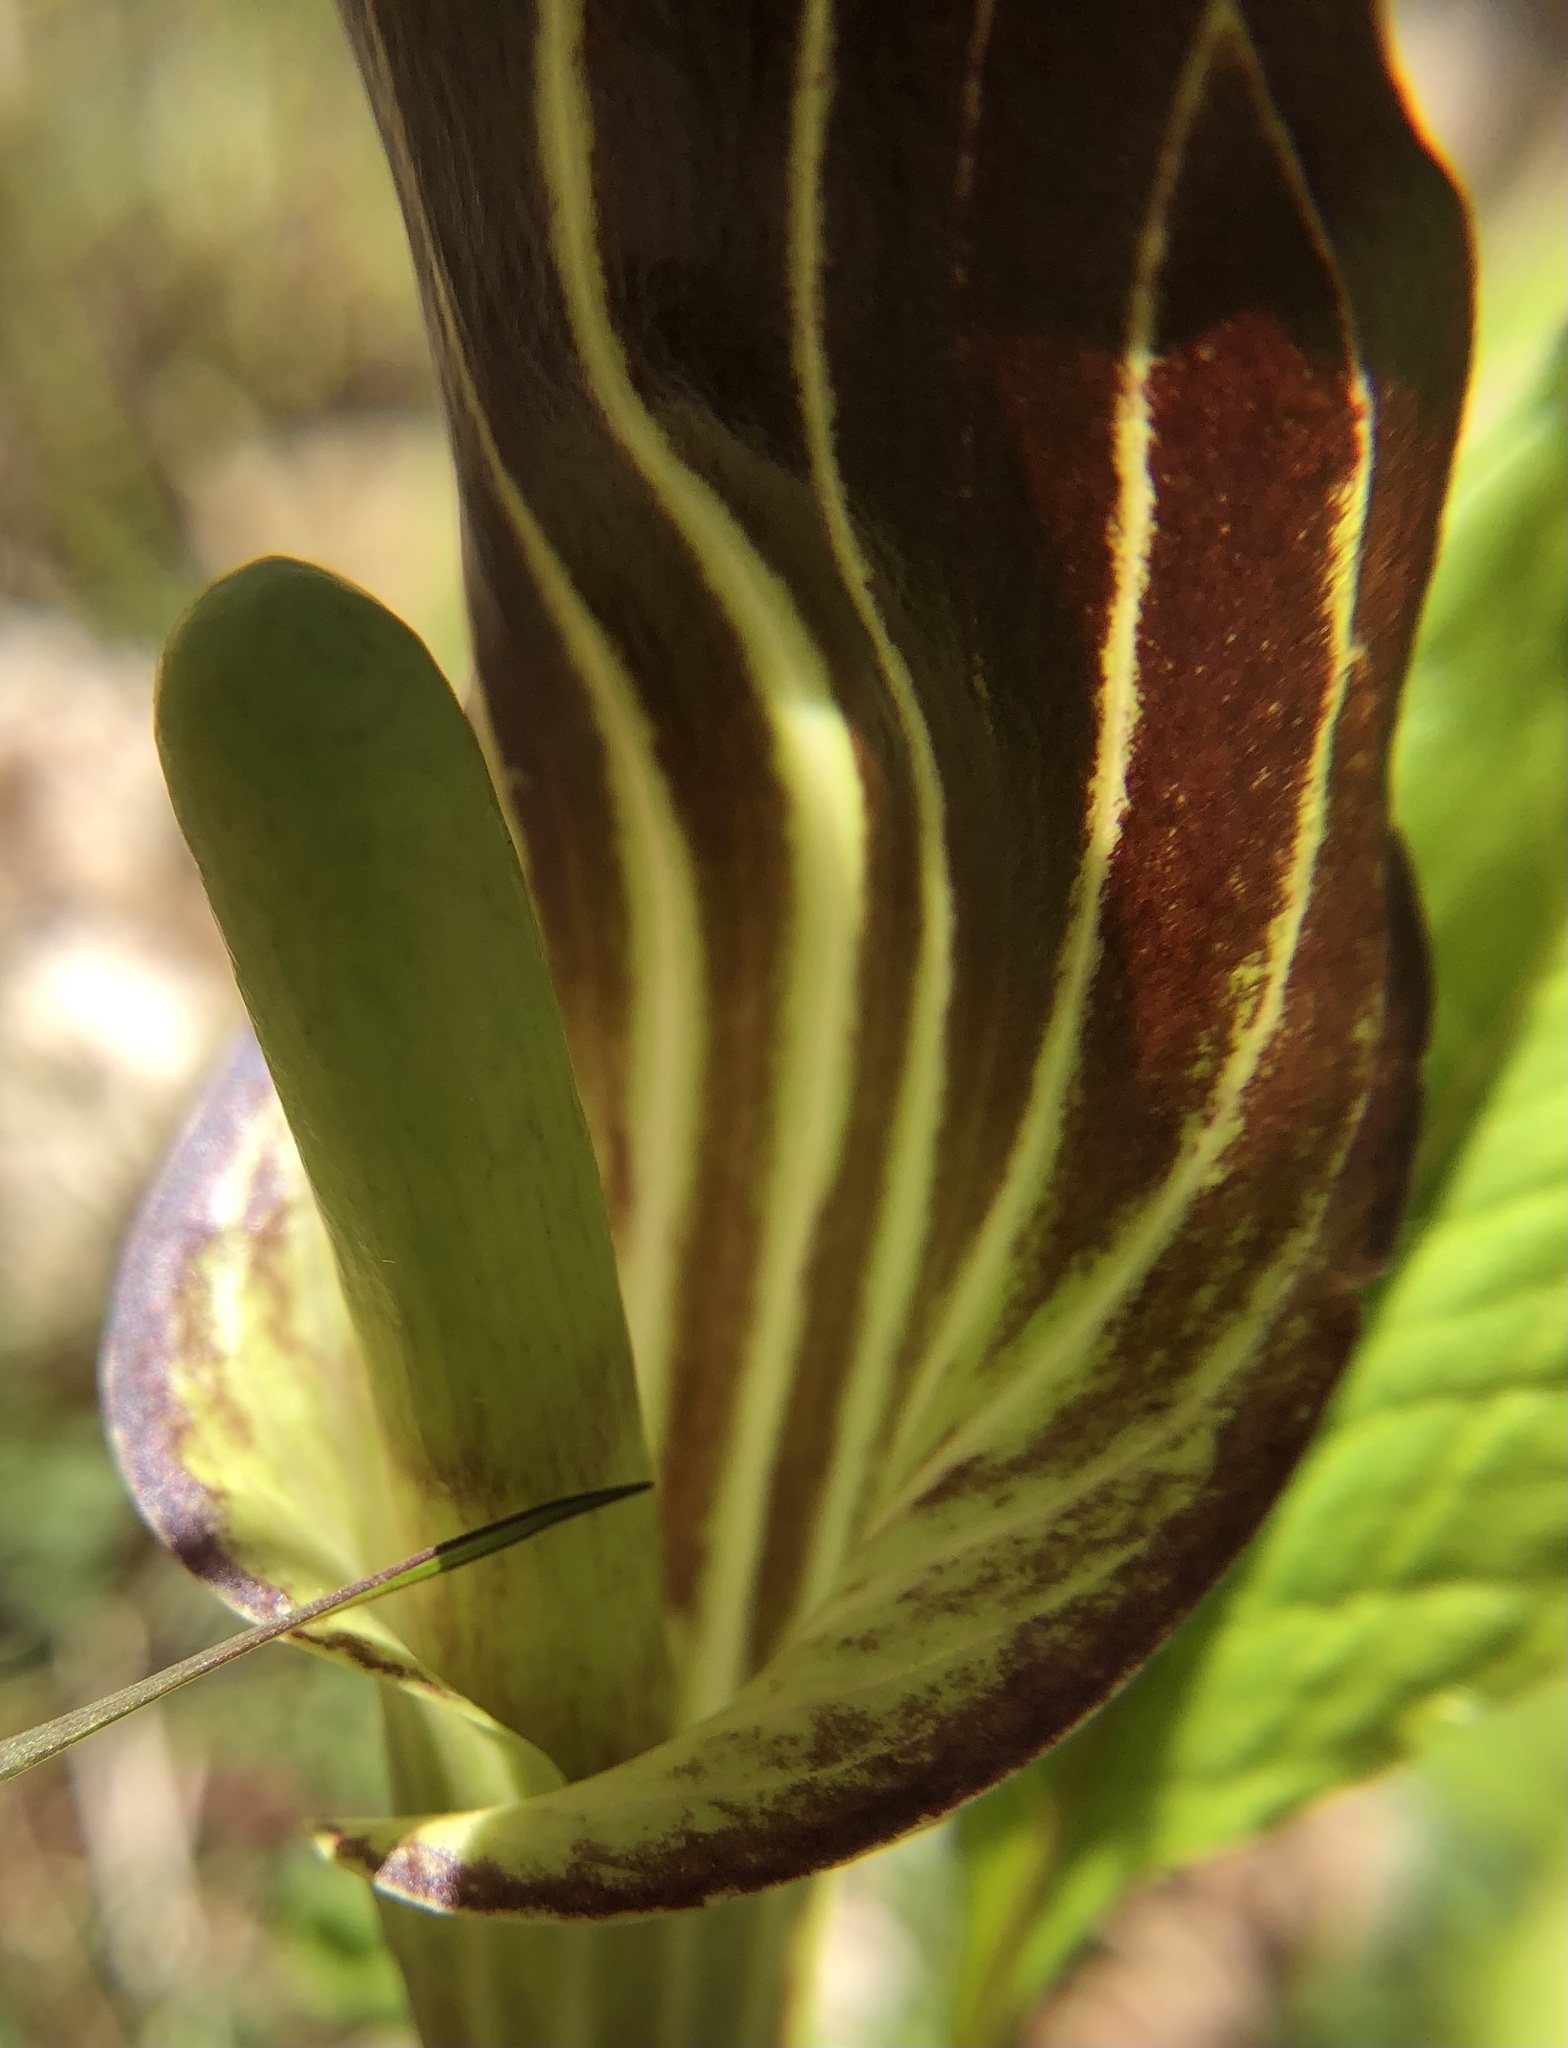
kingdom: Plantae
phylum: Tracheophyta
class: Liliopsida
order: Alismatales
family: Araceae
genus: Arisaema
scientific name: Arisaema triphyllum
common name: Jack-in-the-pulpit
